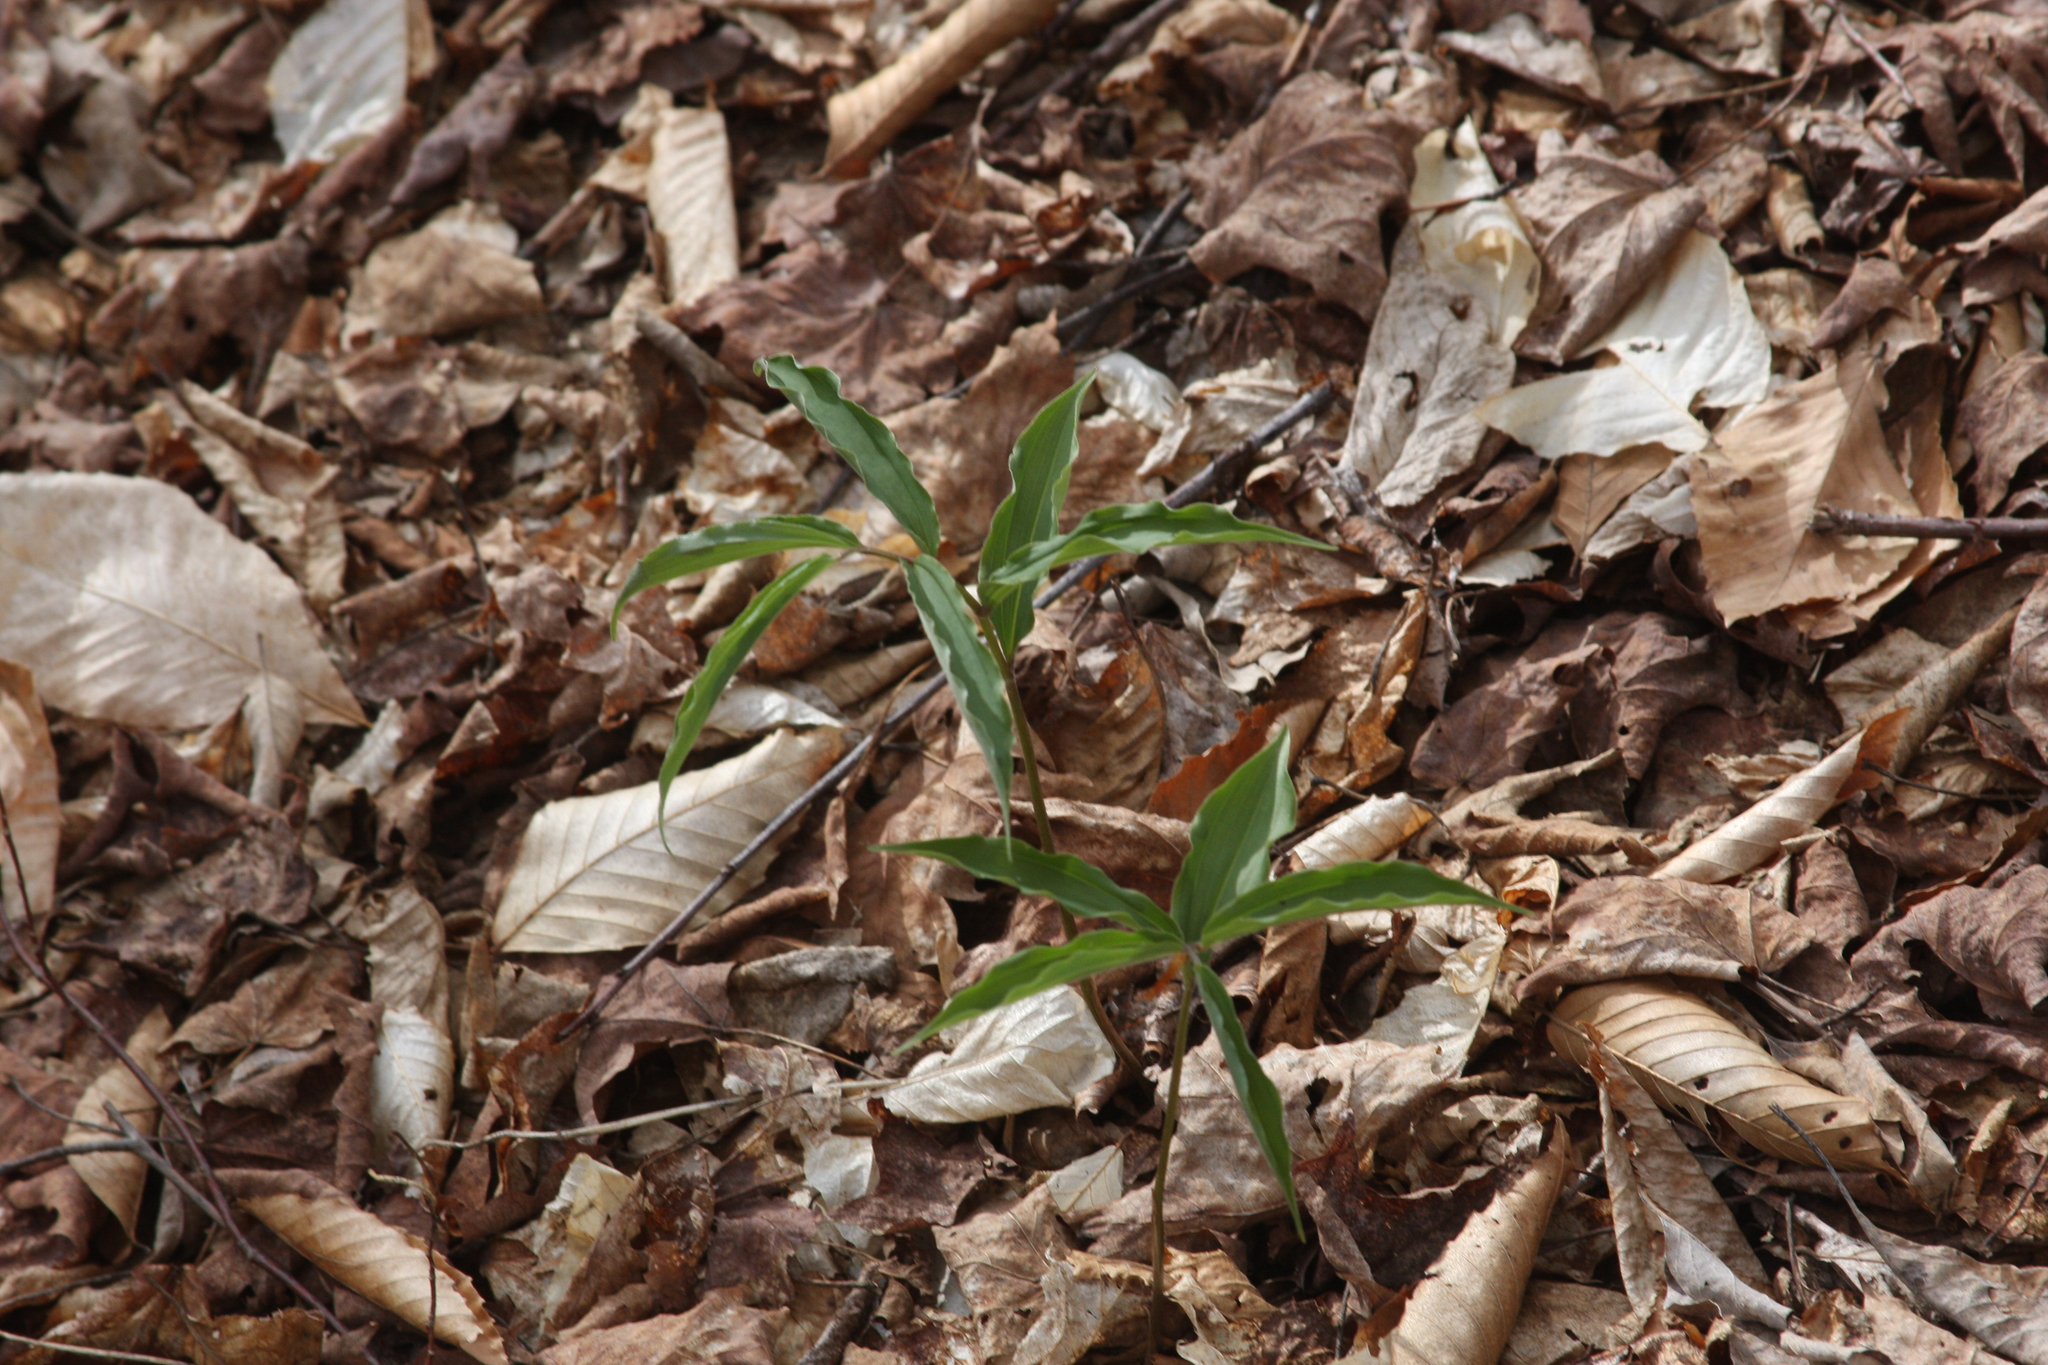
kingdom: Plantae
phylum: Tracheophyta
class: Liliopsida
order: Asparagales
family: Asparagaceae
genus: Maianthemum
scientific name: Maianthemum racemosum
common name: False spikenard
